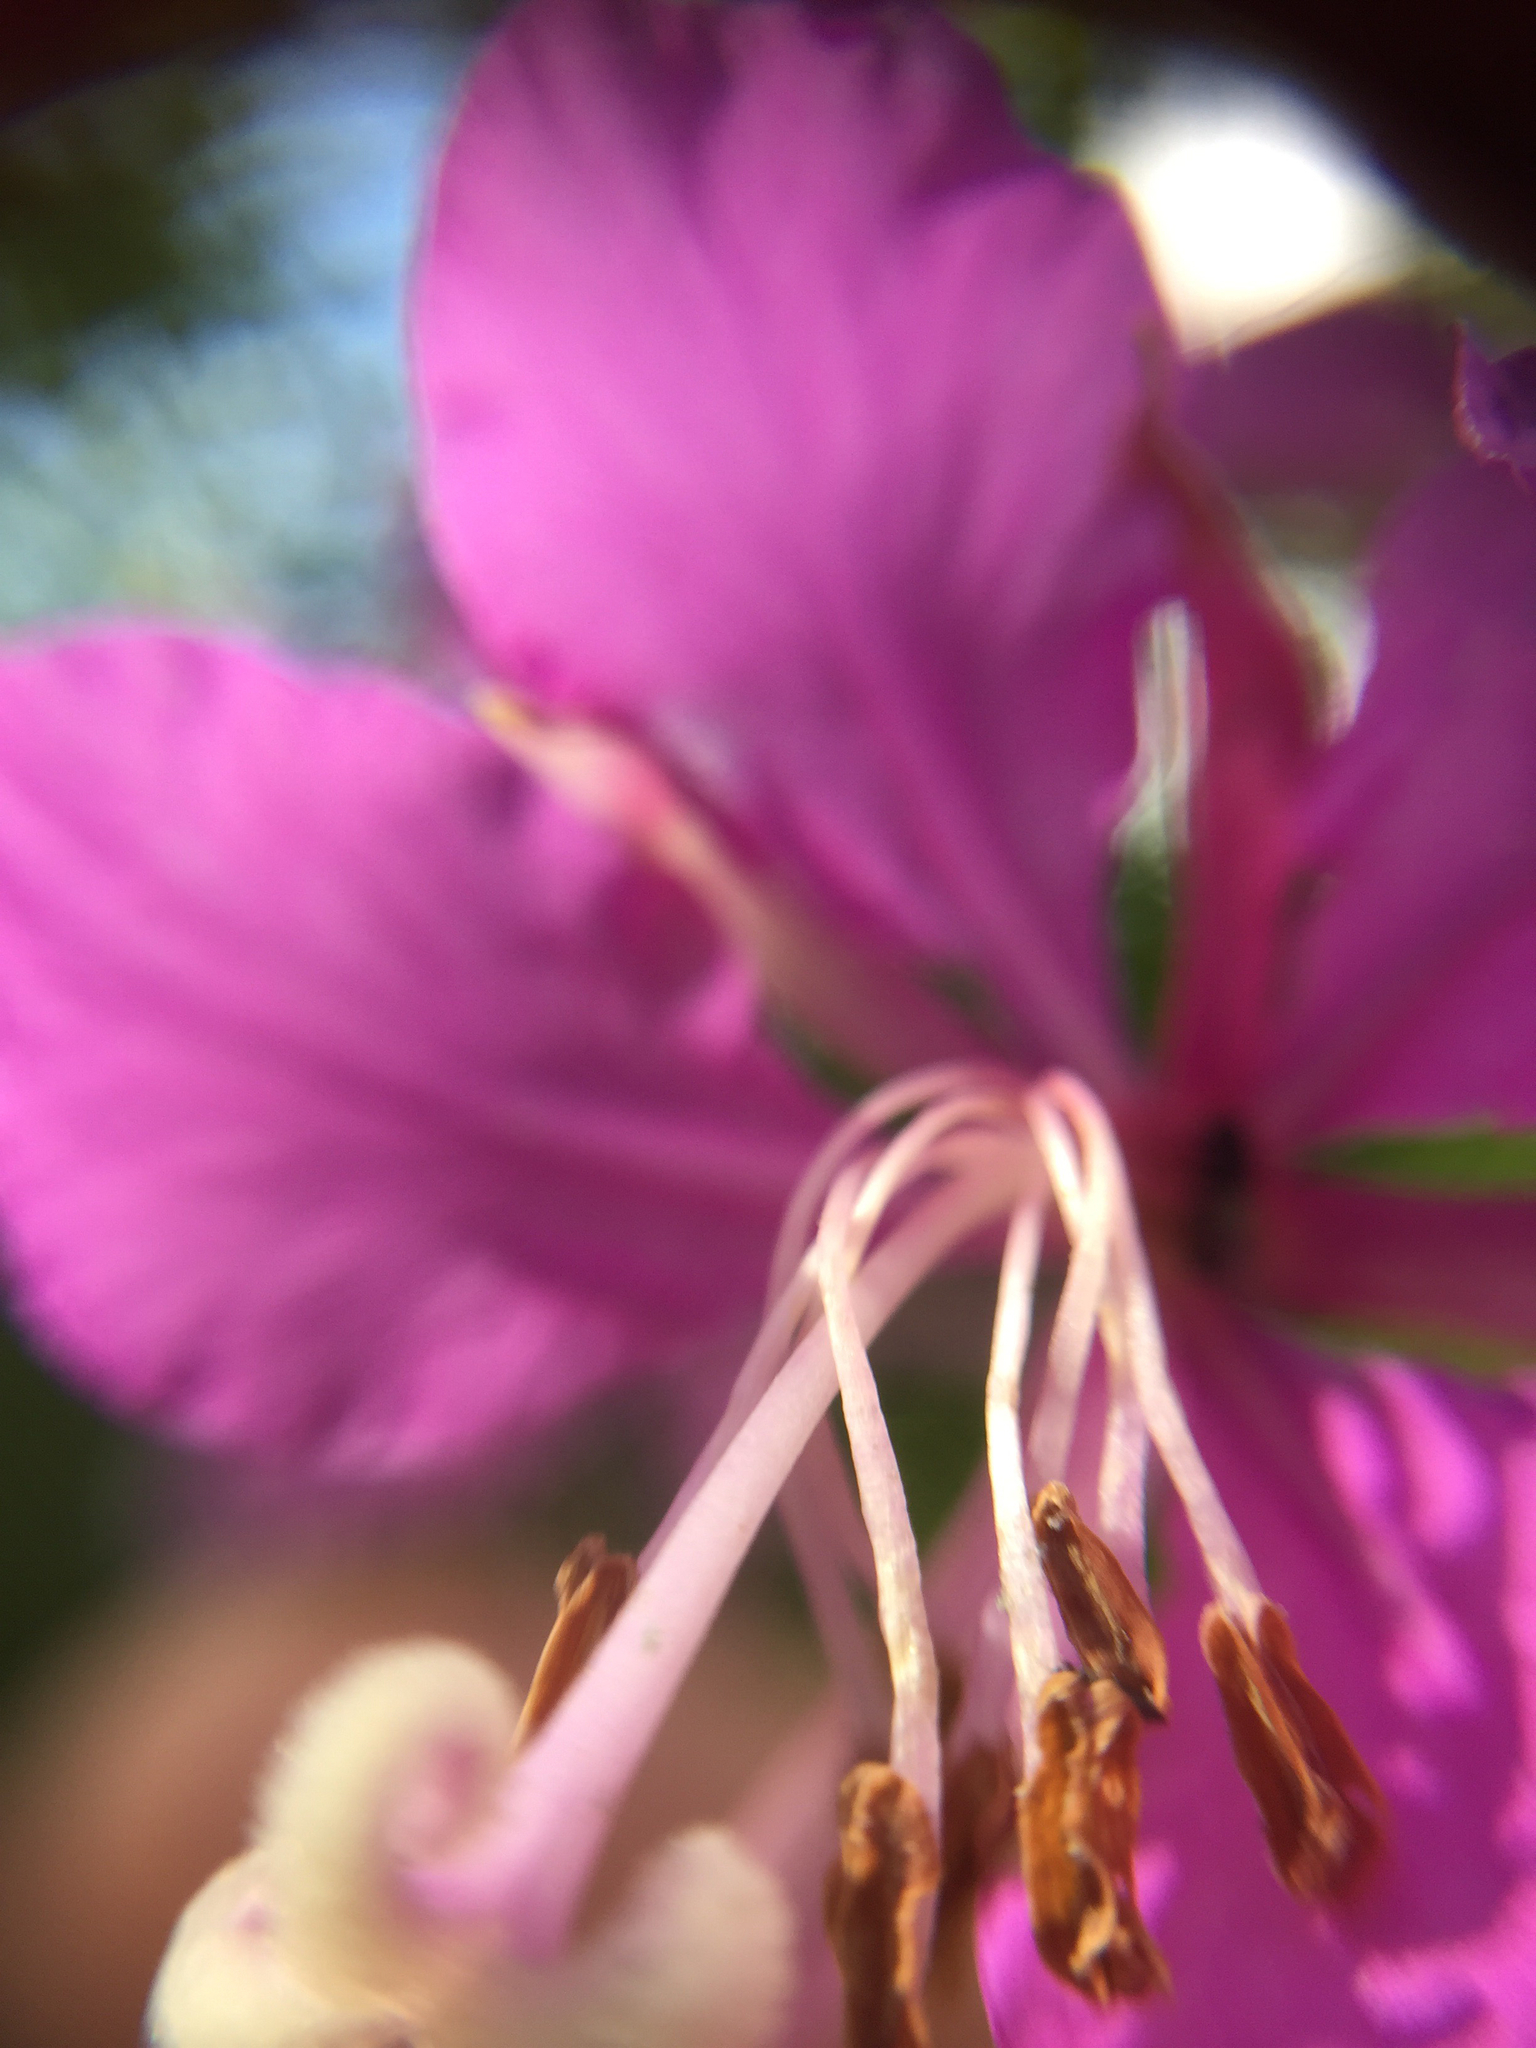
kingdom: Plantae
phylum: Tracheophyta
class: Magnoliopsida
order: Myrtales
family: Onagraceae
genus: Chamaenerion
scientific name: Chamaenerion angustifolium
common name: Fireweed
